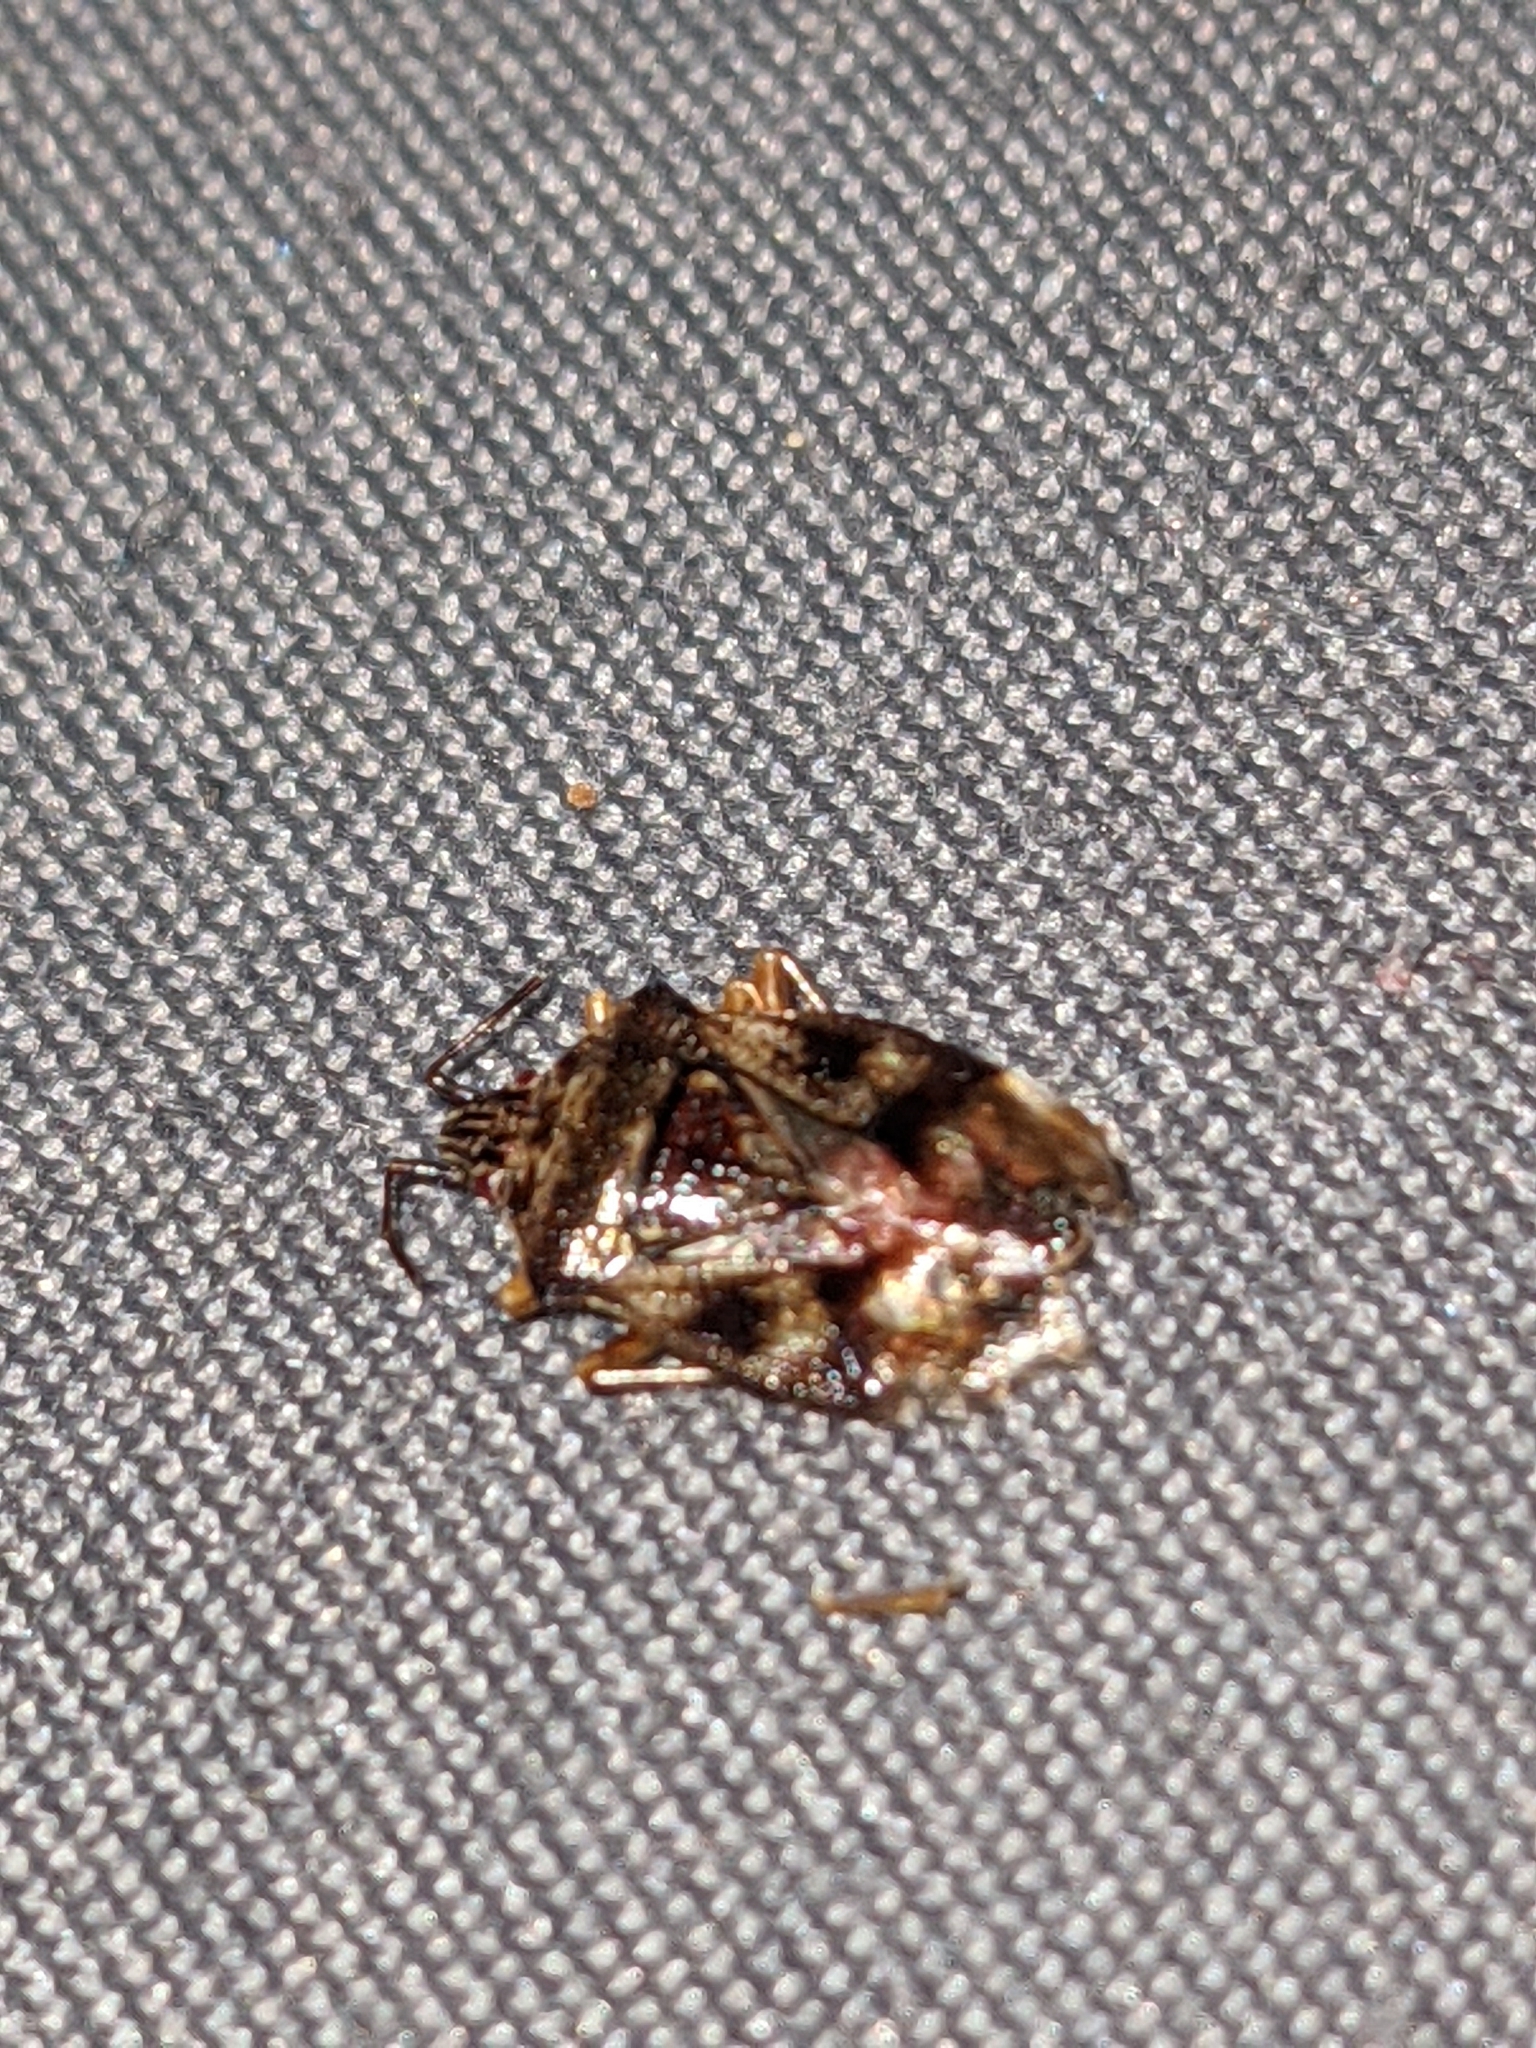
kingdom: Animalia
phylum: Arthropoda
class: Insecta
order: Hemiptera
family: Acanthosomatidae
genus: Elasmucha
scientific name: Elasmucha lateralis
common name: Shield bug
